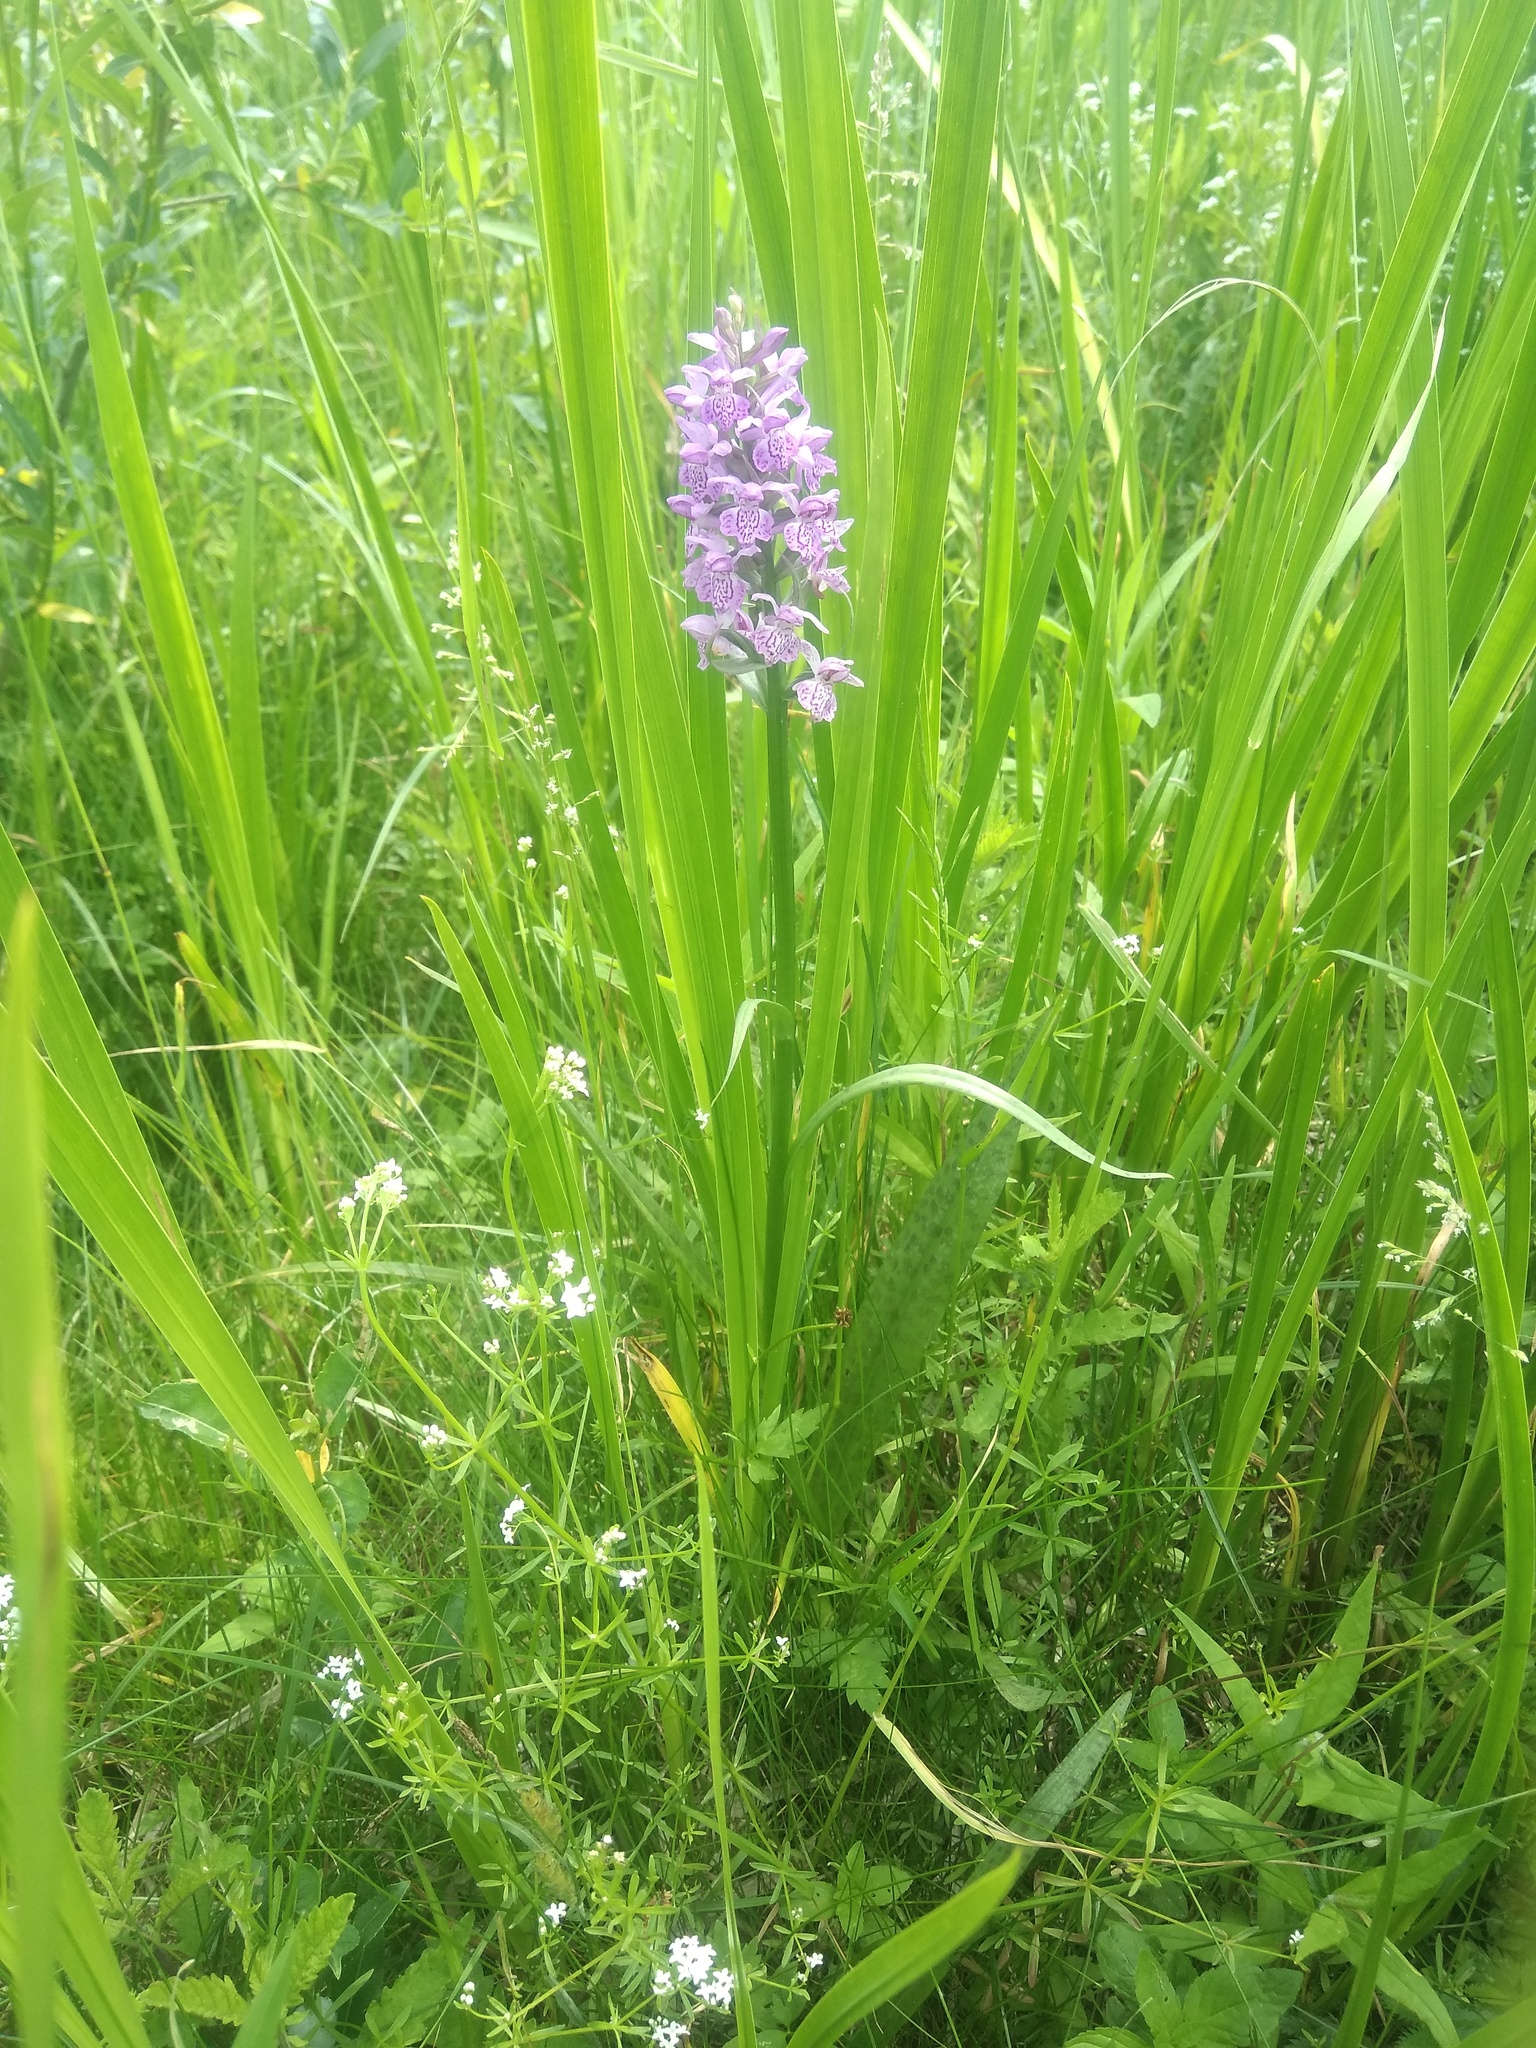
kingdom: Plantae
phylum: Tracheophyta
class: Liliopsida
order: Asparagales
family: Orchidaceae
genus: Dactylorhiza
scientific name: Dactylorhiza majalis
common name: Marsh orchid
